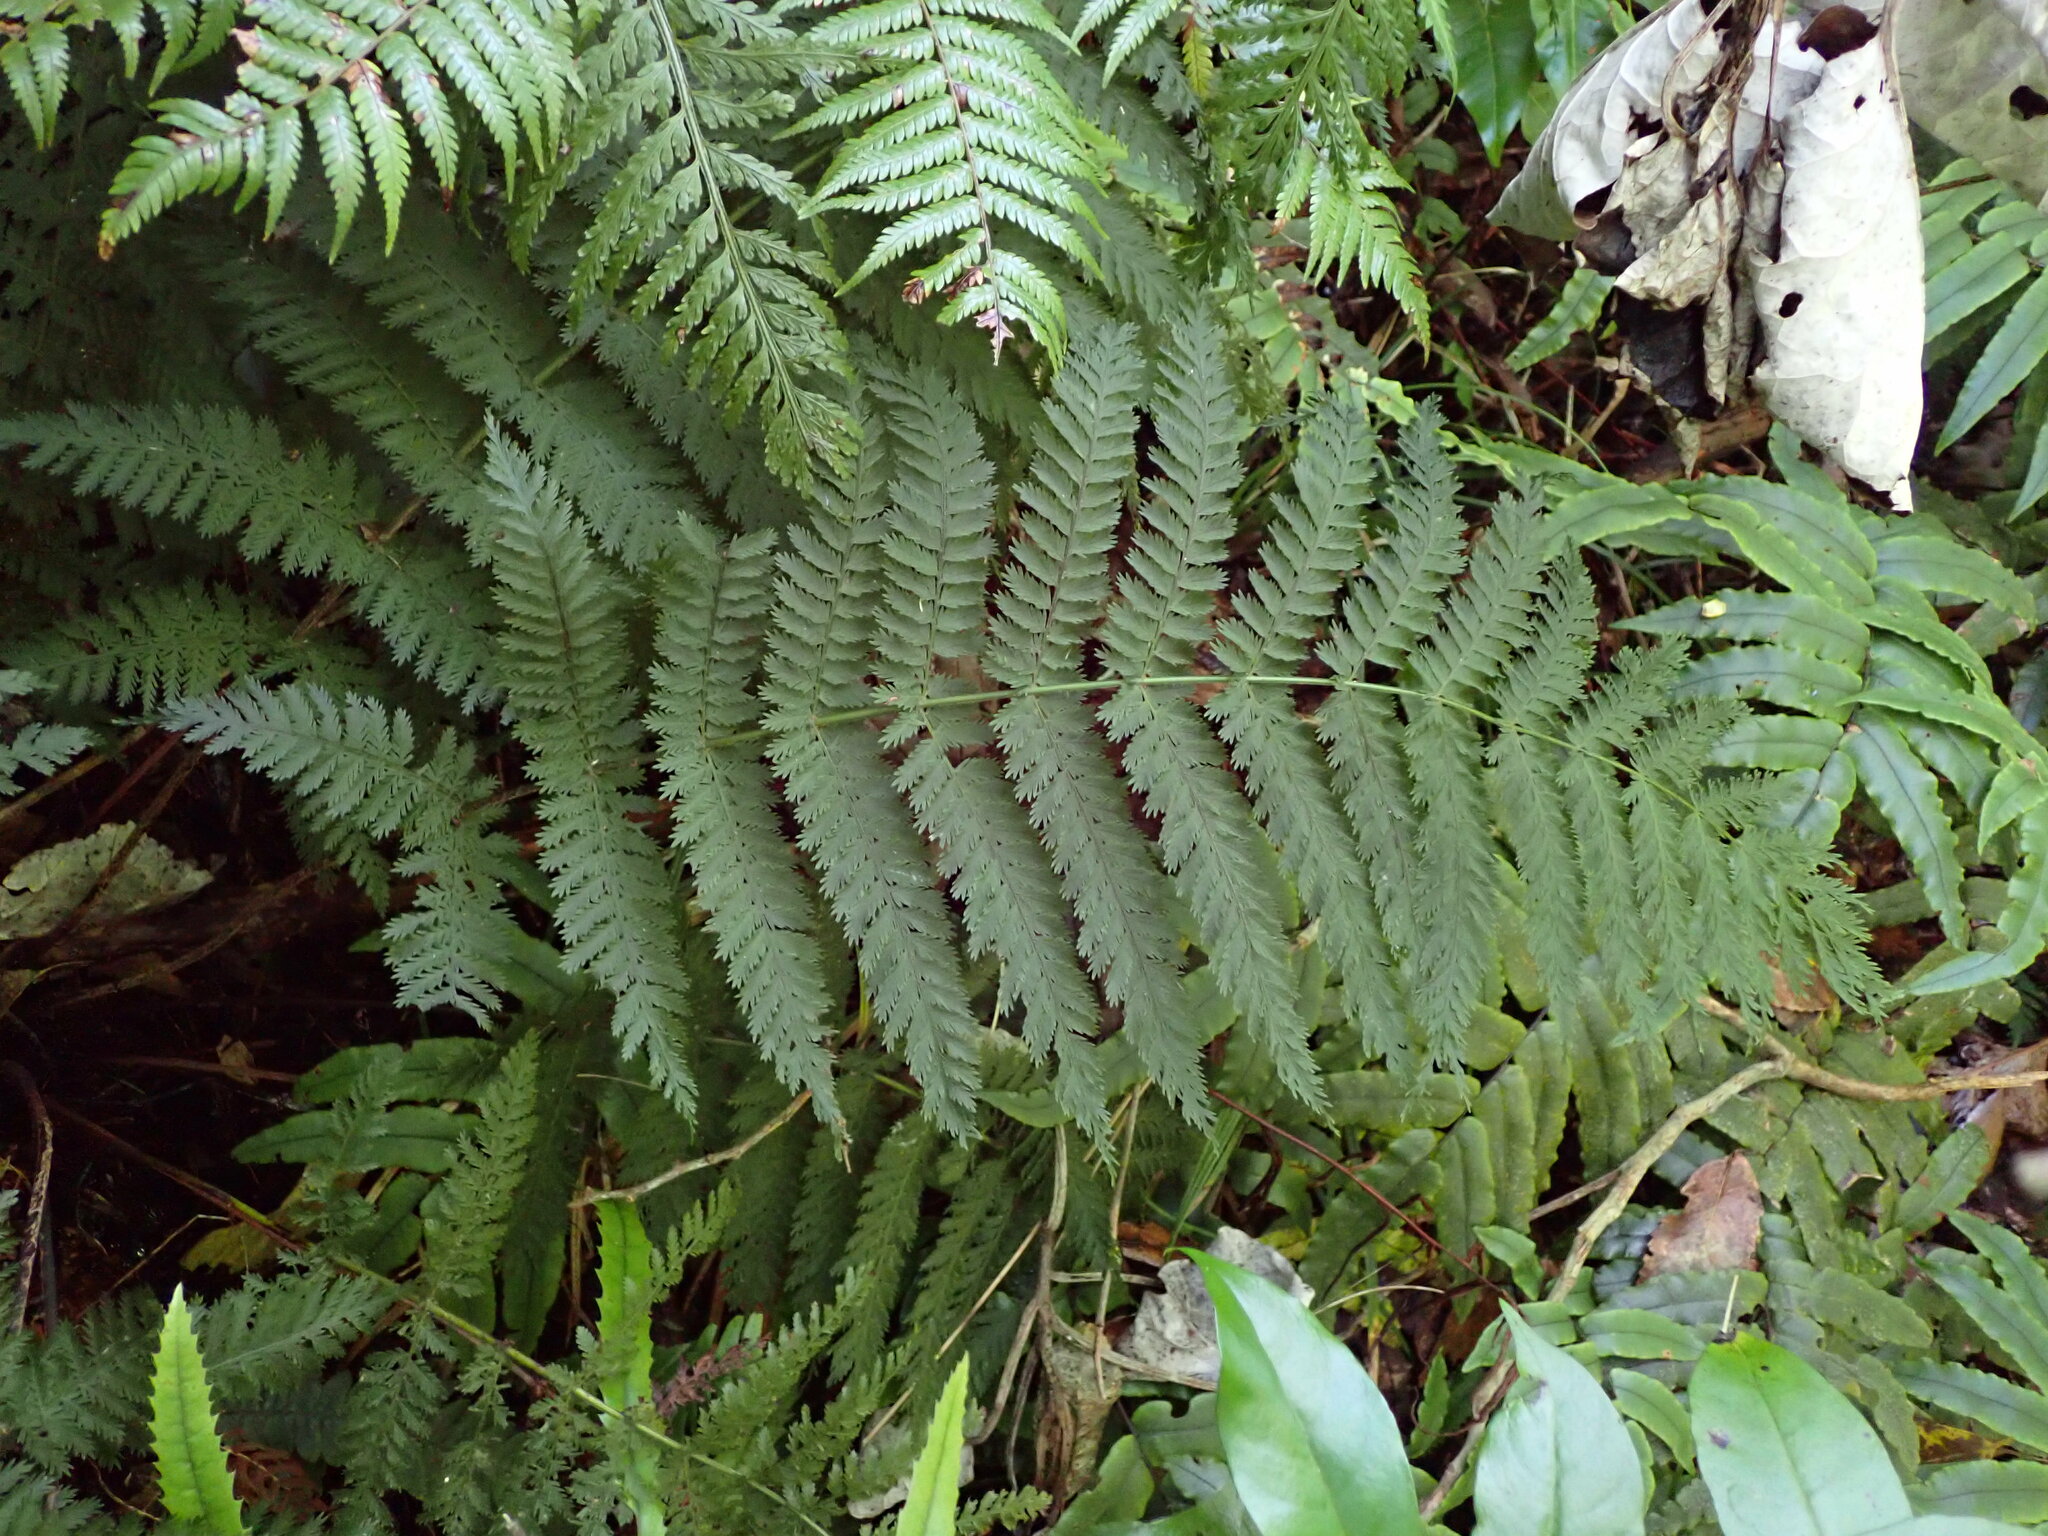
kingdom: Plantae
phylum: Tracheophyta
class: Polypodiopsida
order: Osmundales
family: Osmundaceae
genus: Leptopteris
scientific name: Leptopteris hymenophylloides
